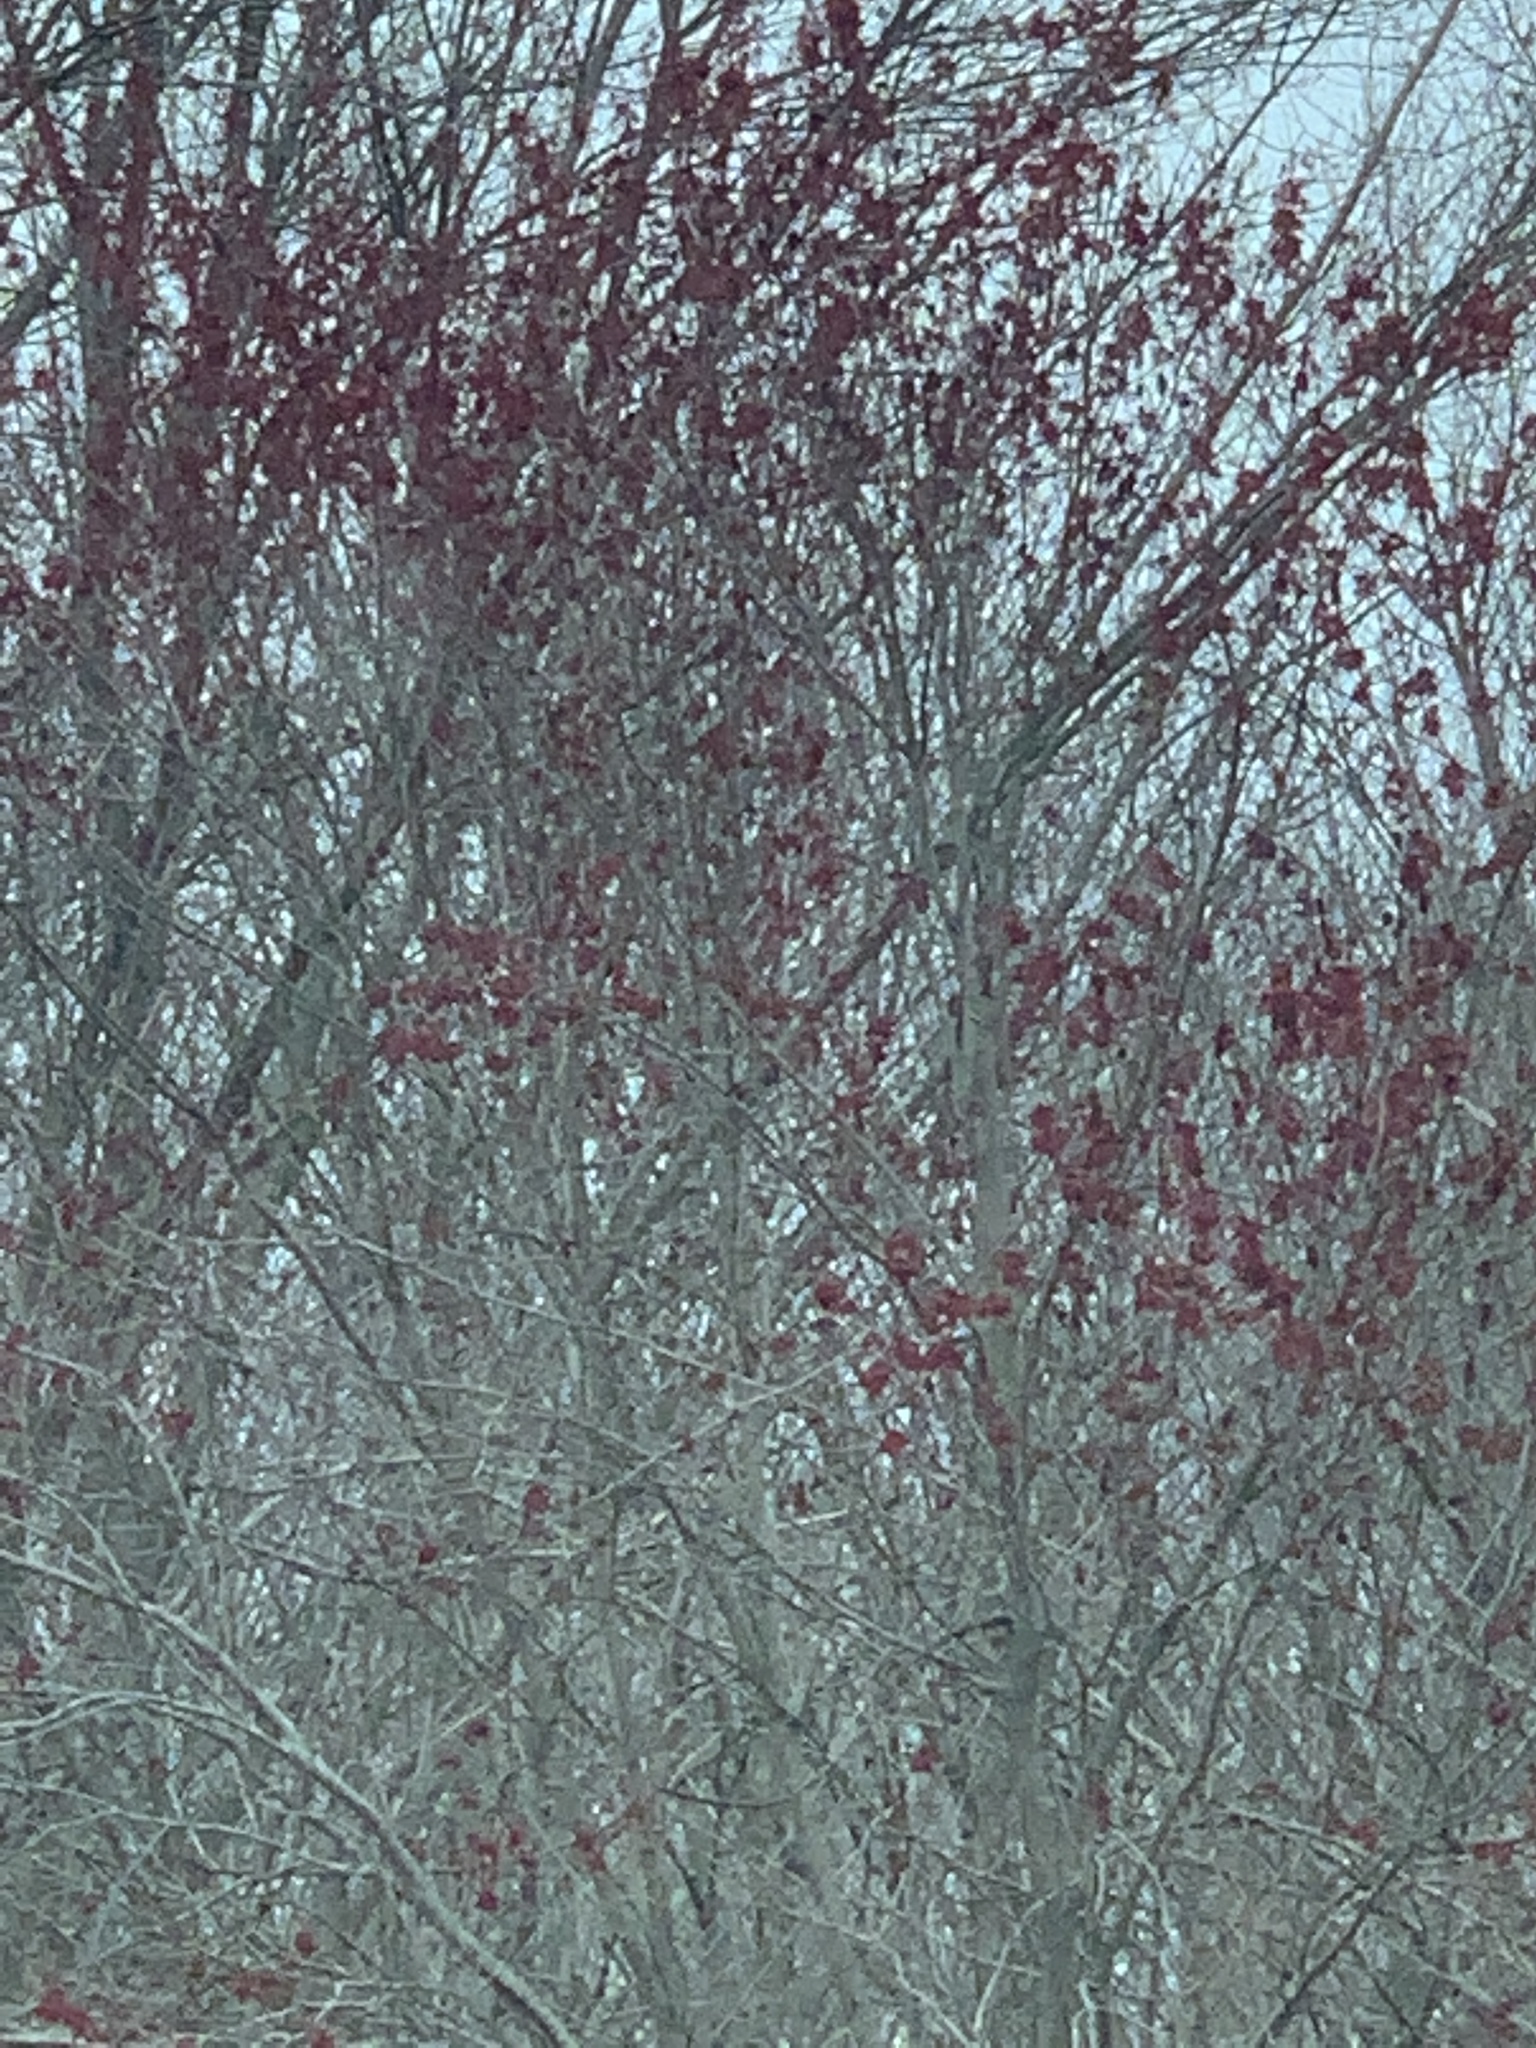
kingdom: Plantae
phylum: Tracheophyta
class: Magnoliopsida
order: Sapindales
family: Sapindaceae
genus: Acer
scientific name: Acer rubrum
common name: Red maple
